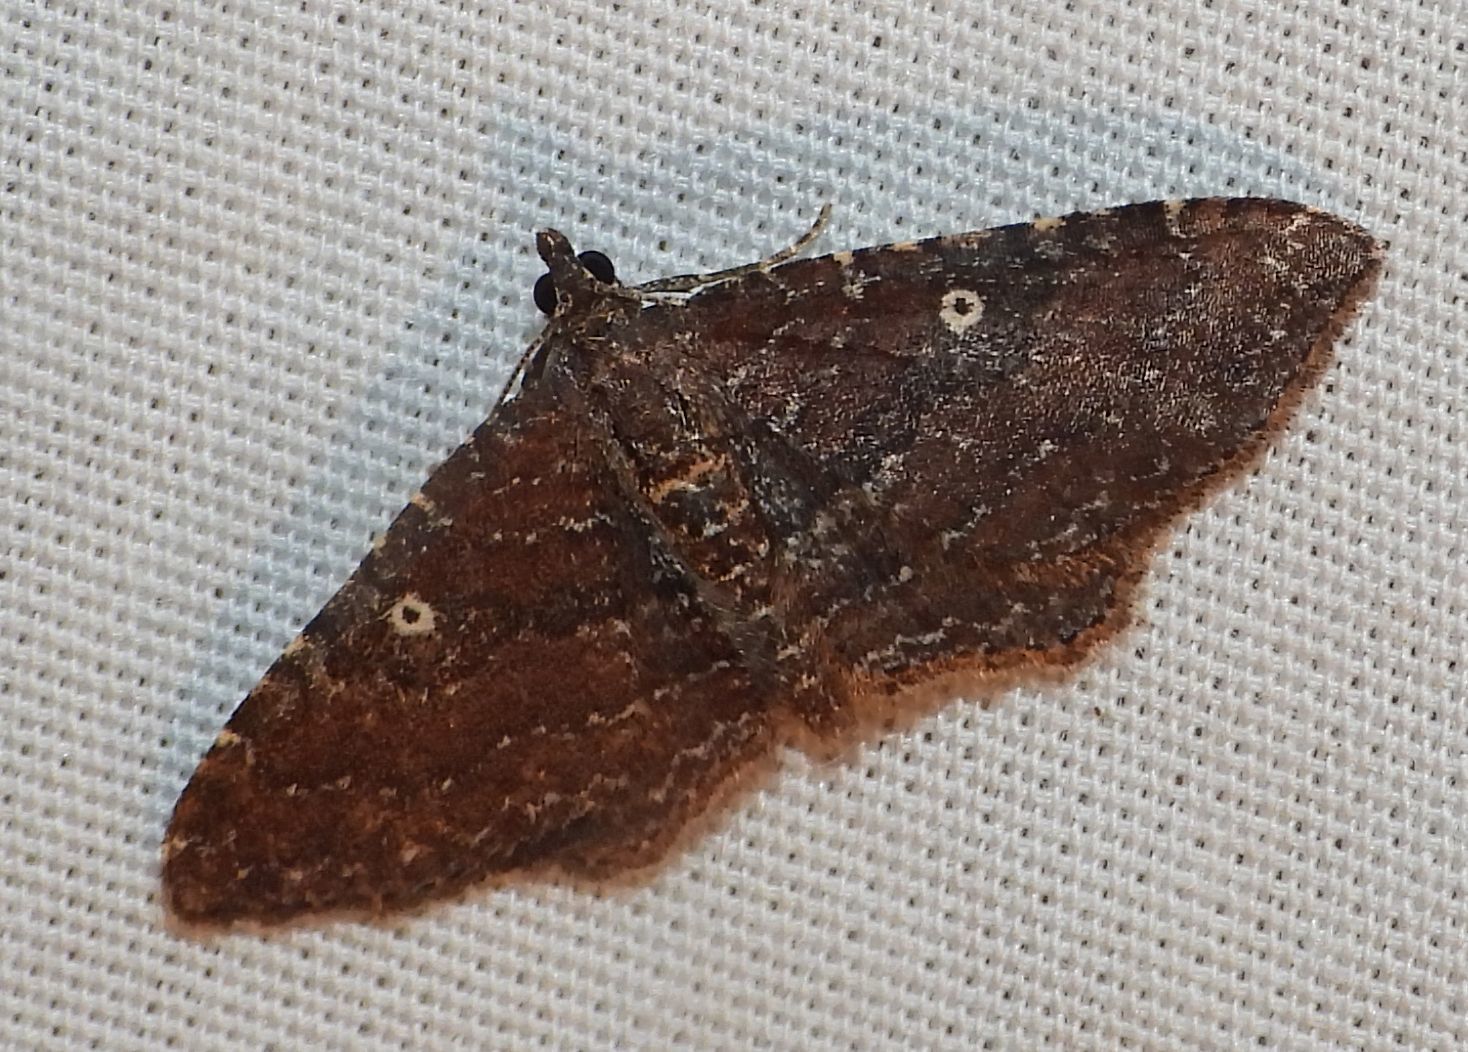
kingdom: Animalia
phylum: Arthropoda
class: Insecta
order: Lepidoptera
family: Geometridae
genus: Orthonama
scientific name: Orthonama obstipata
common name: The gem
